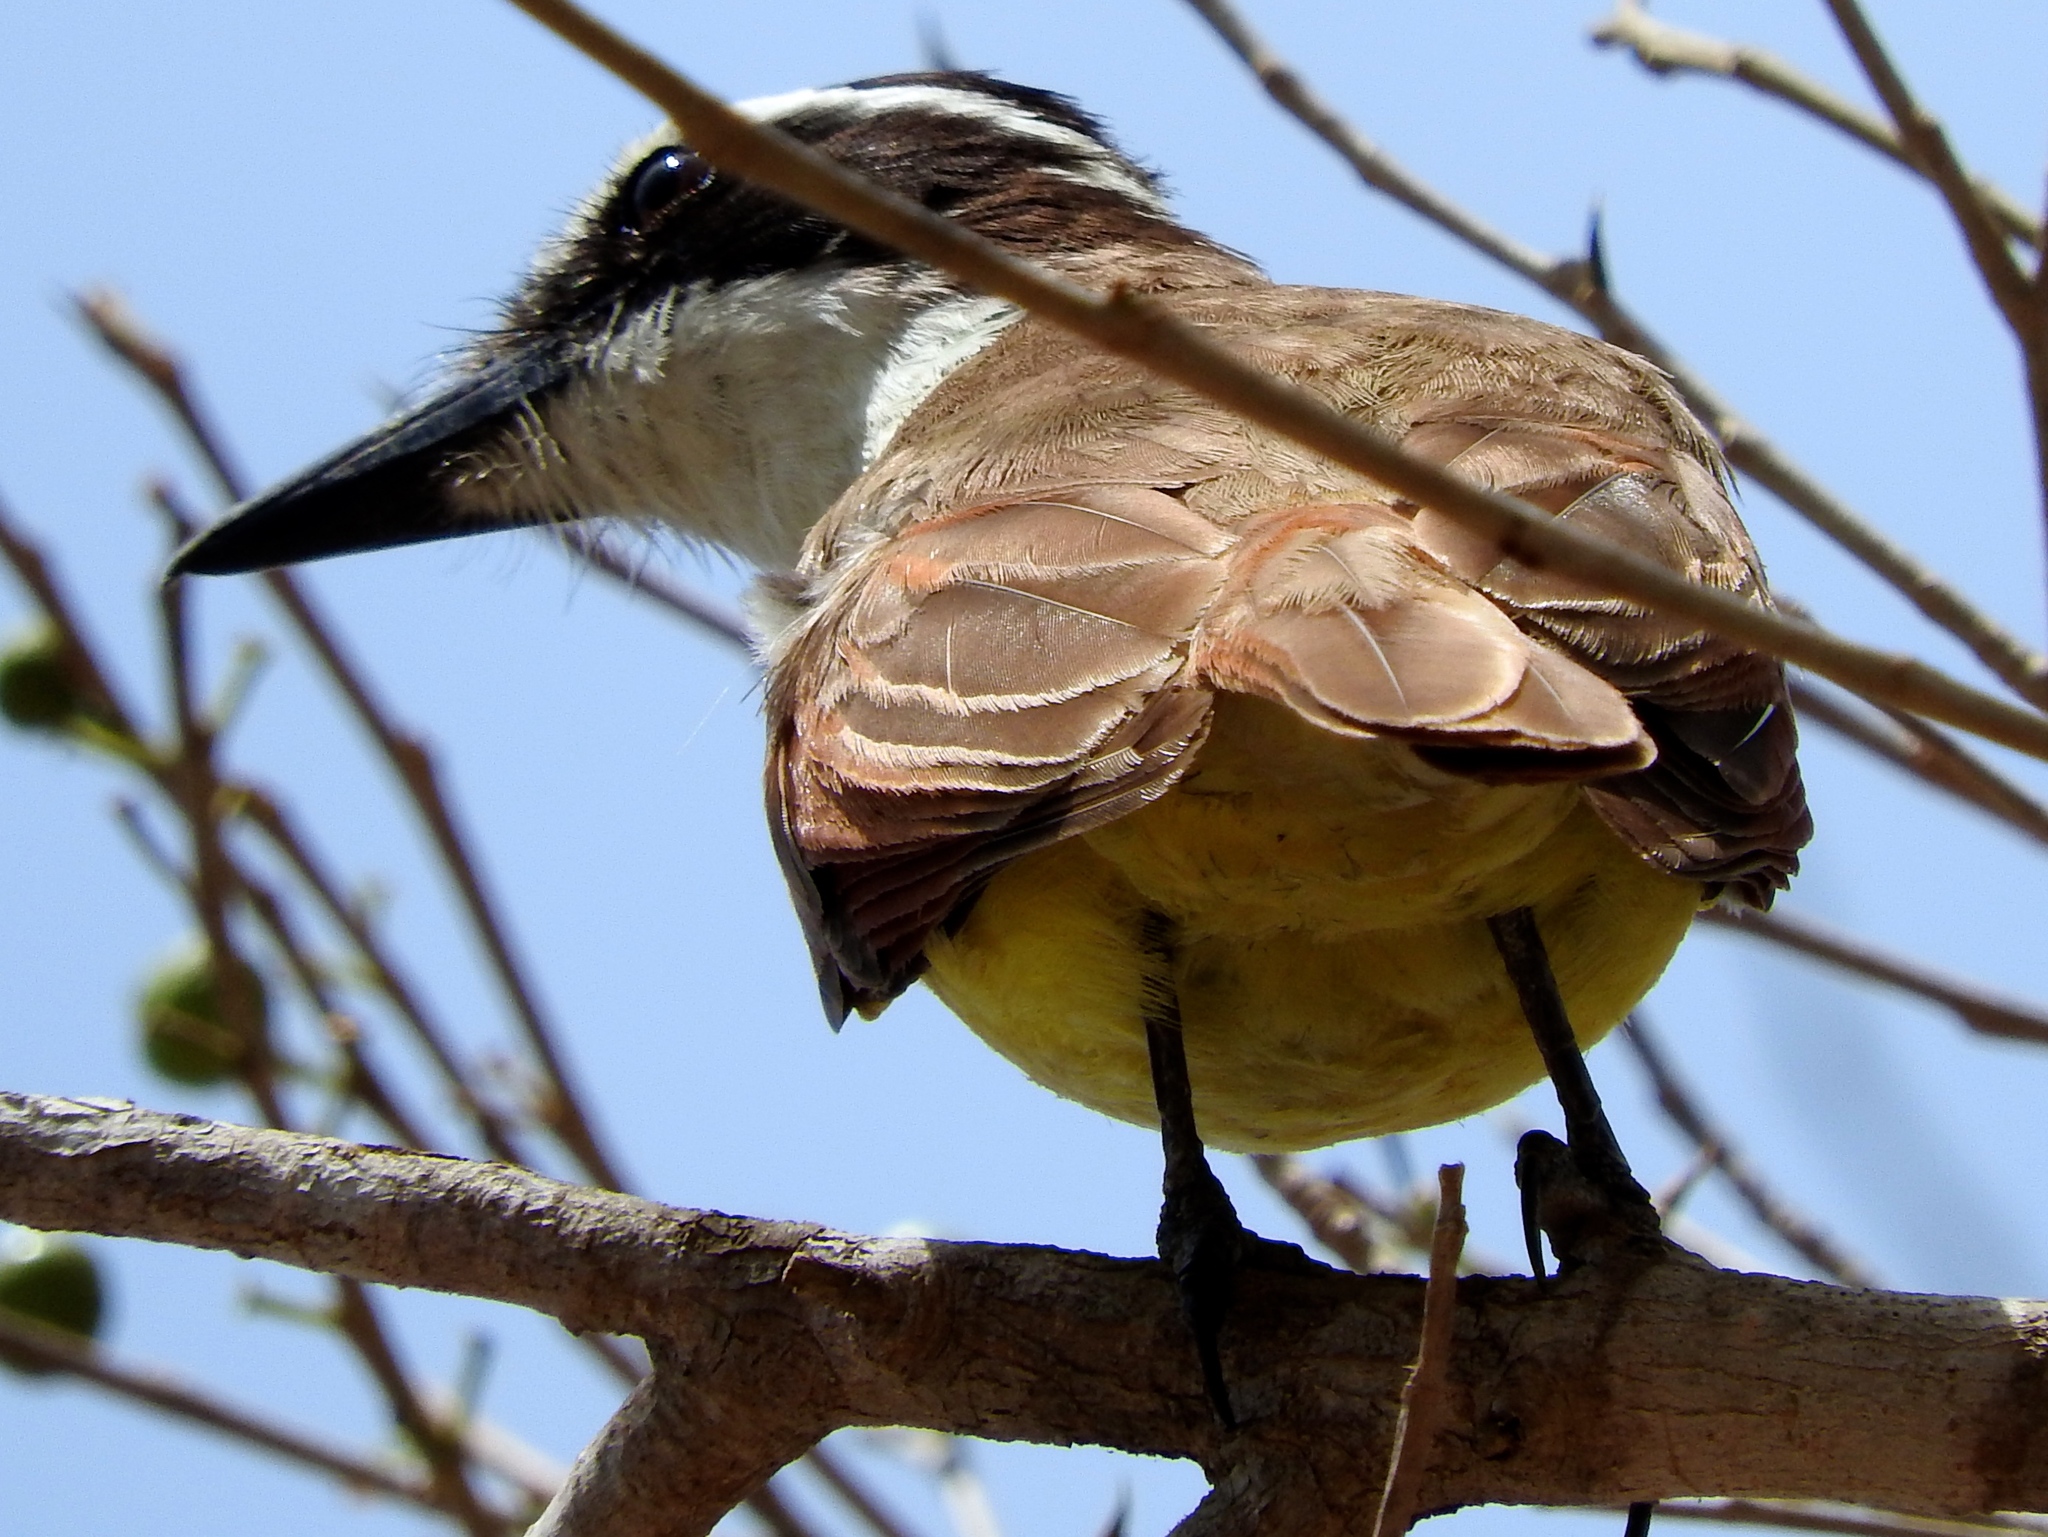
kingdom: Animalia
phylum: Chordata
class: Aves
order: Passeriformes
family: Tyrannidae
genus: Pitangus
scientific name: Pitangus sulphuratus
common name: Great kiskadee
